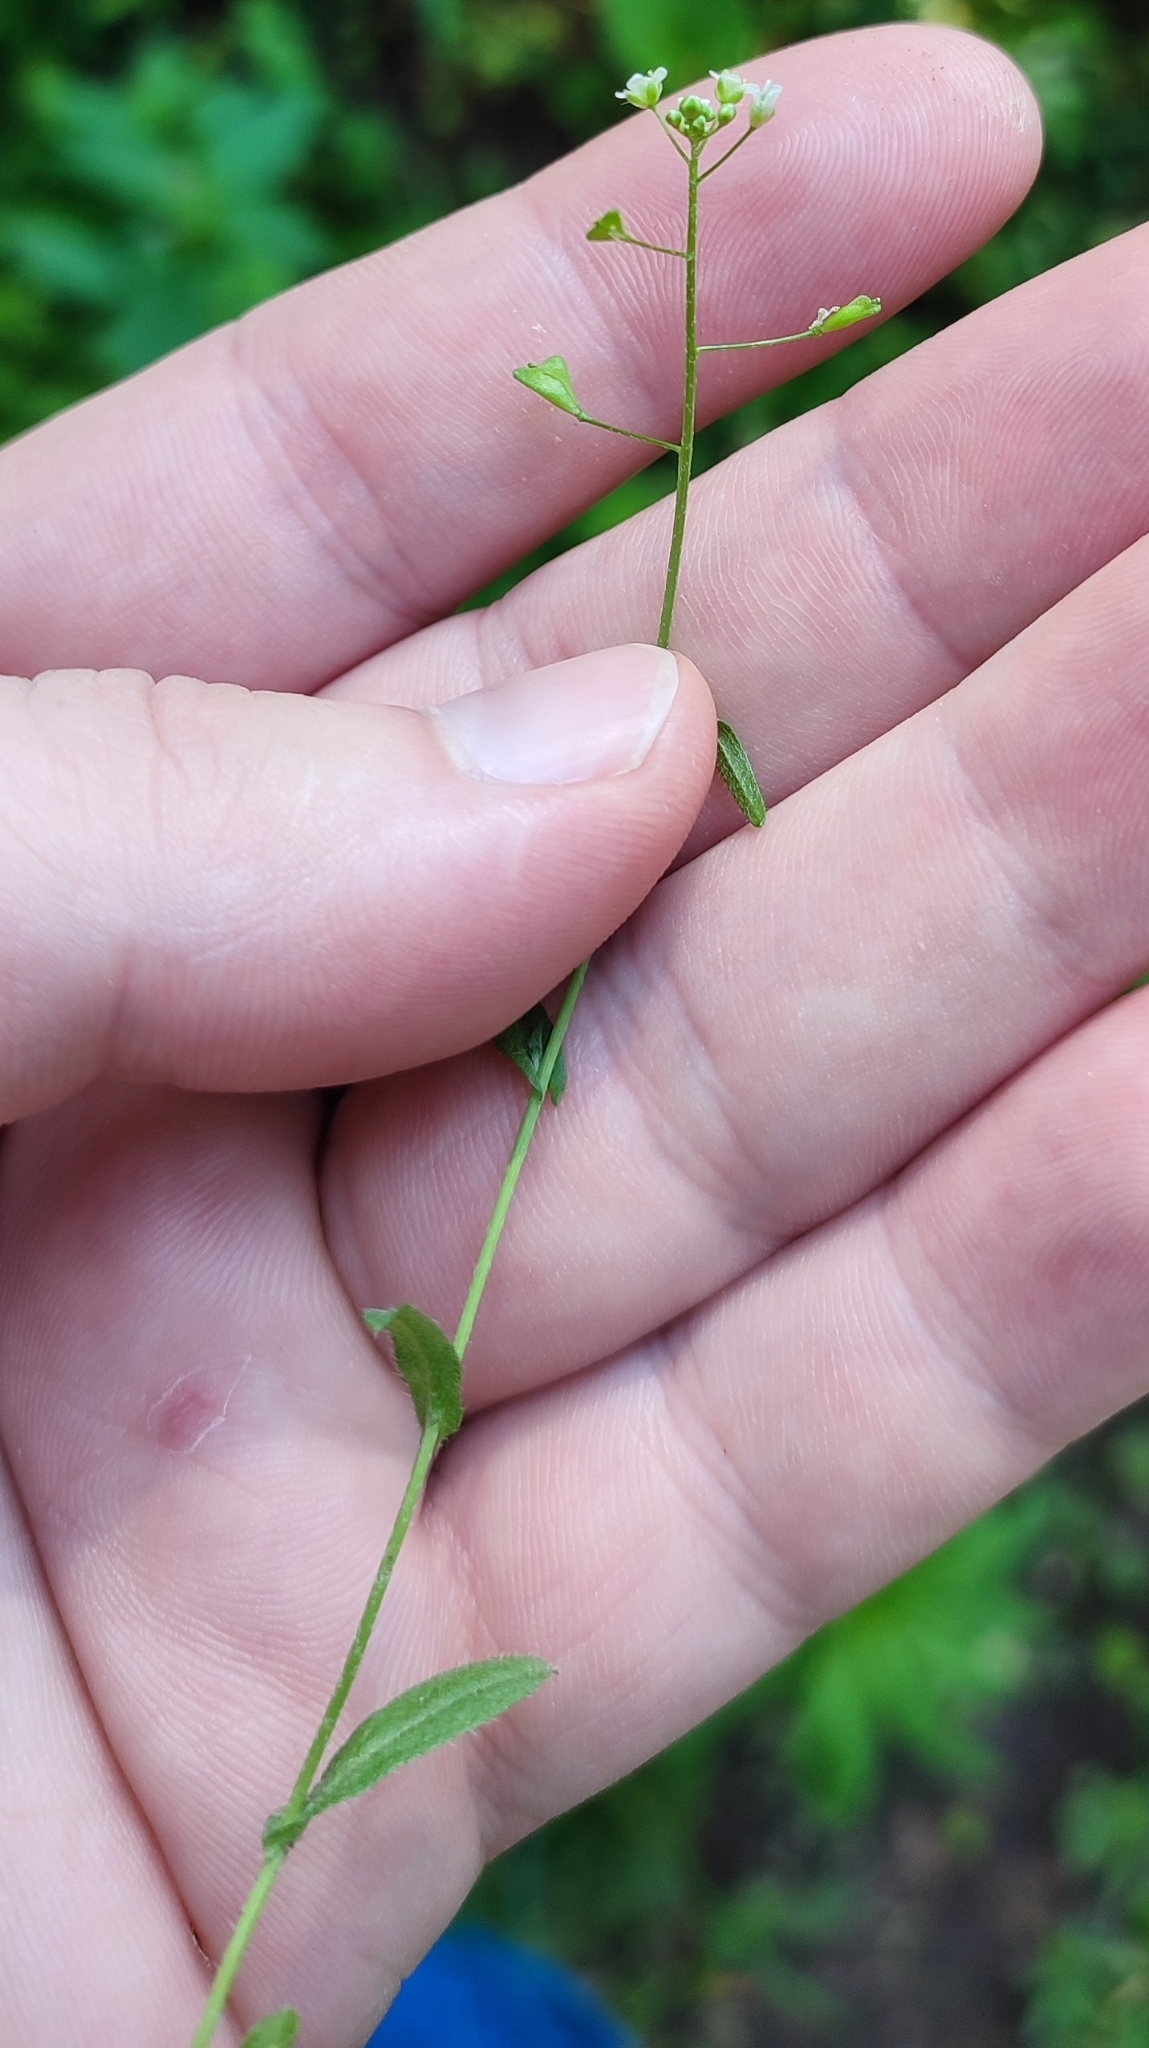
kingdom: Plantae
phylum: Tracheophyta
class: Magnoliopsida
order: Brassicales
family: Brassicaceae
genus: Capsella
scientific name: Capsella bursa-pastoris
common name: Shepherd's purse
